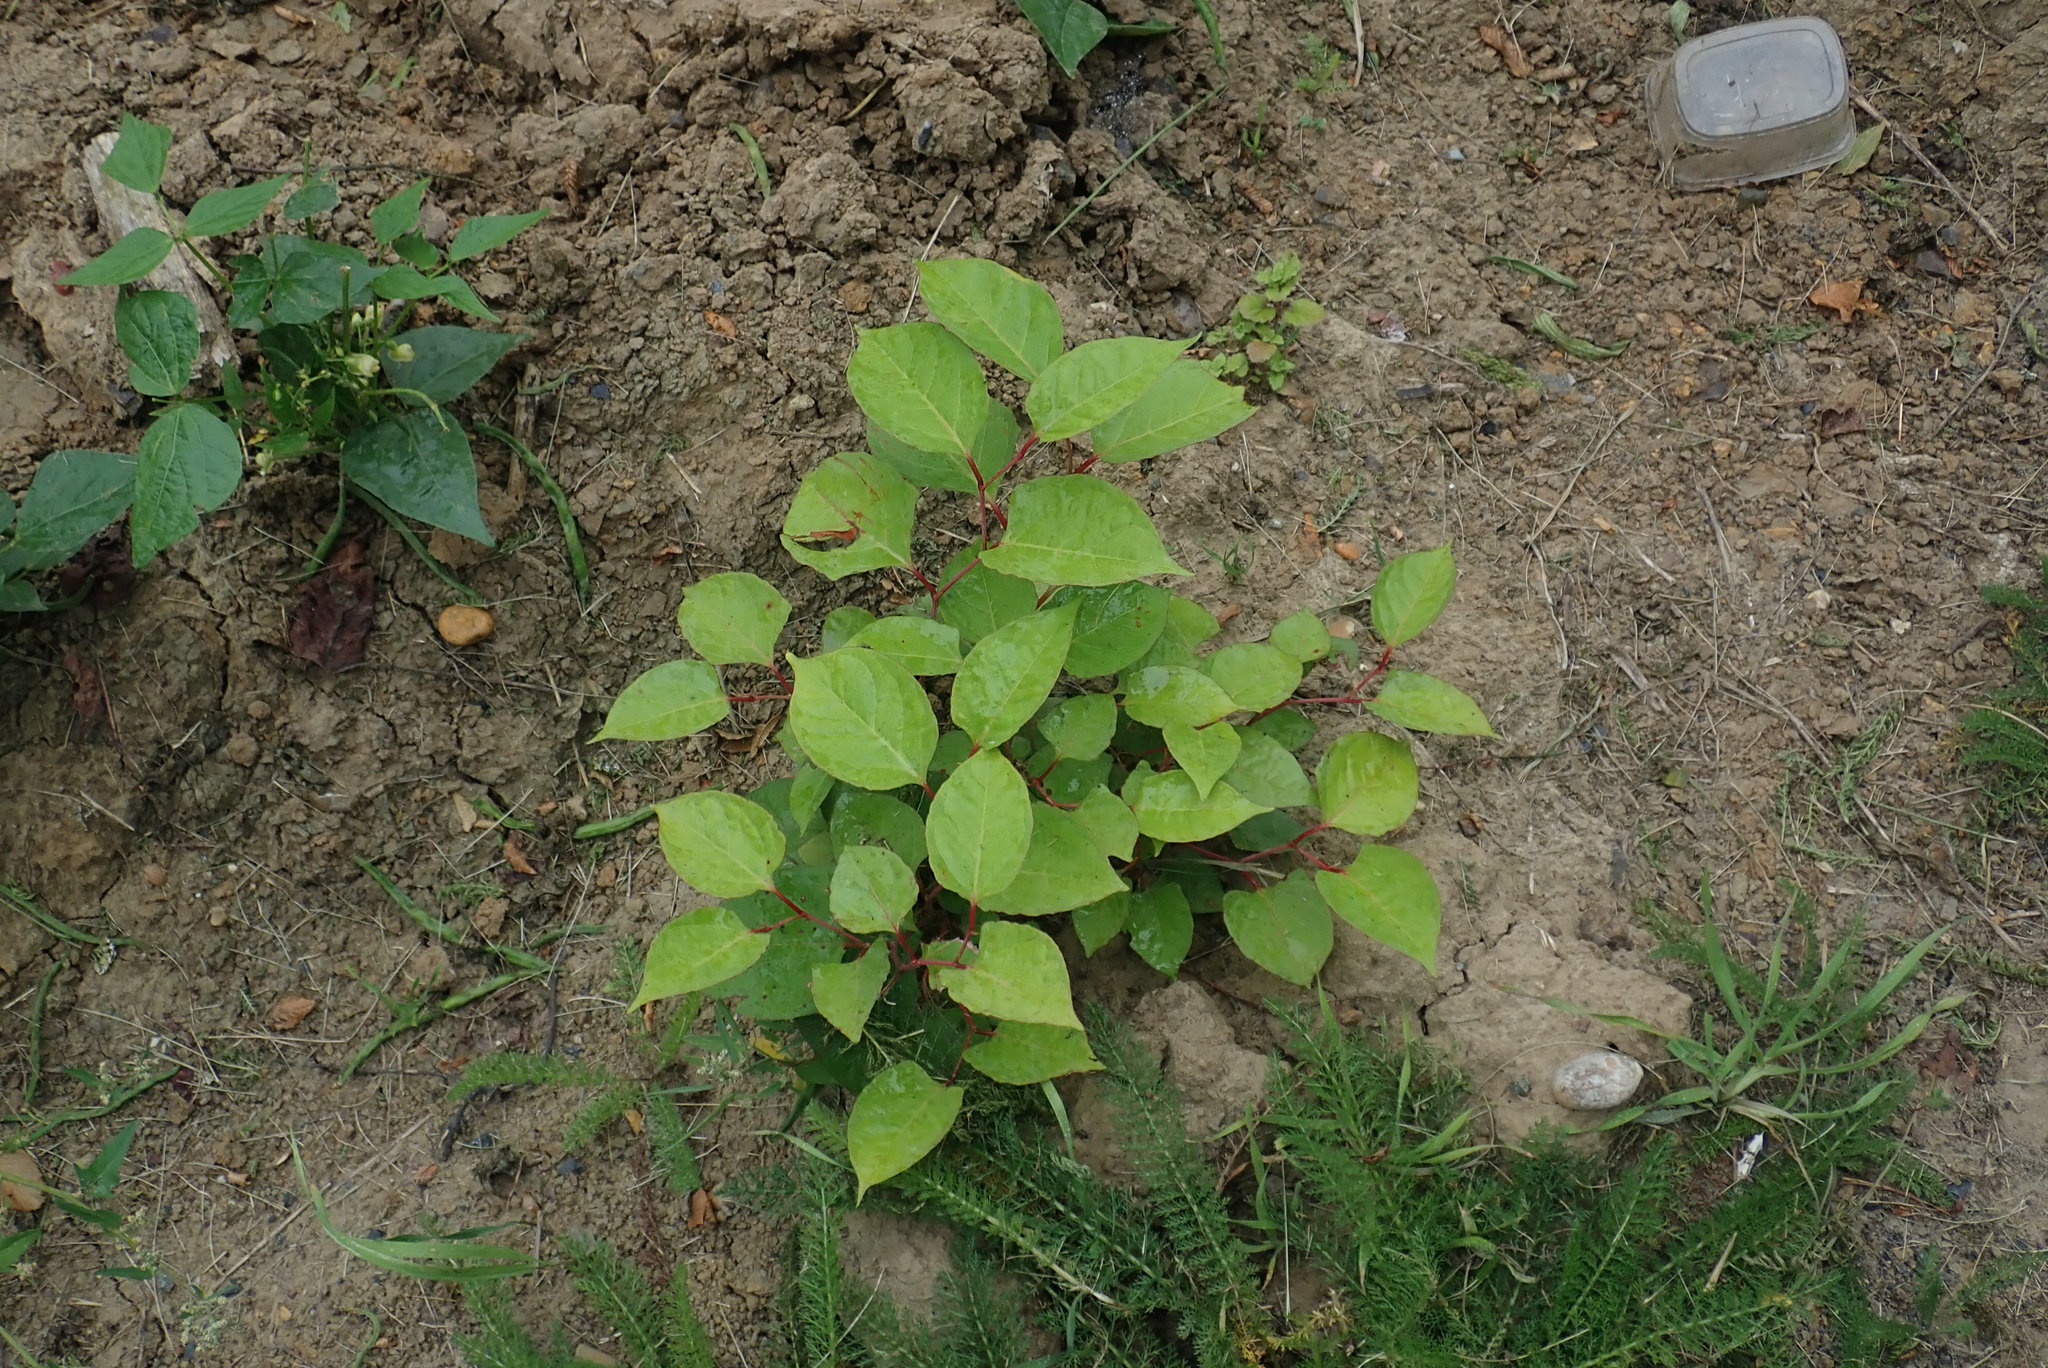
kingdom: Plantae
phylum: Tracheophyta
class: Magnoliopsida
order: Caryophyllales
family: Polygonaceae
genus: Reynoutria
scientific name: Reynoutria japonica
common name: Japanese knotweed
